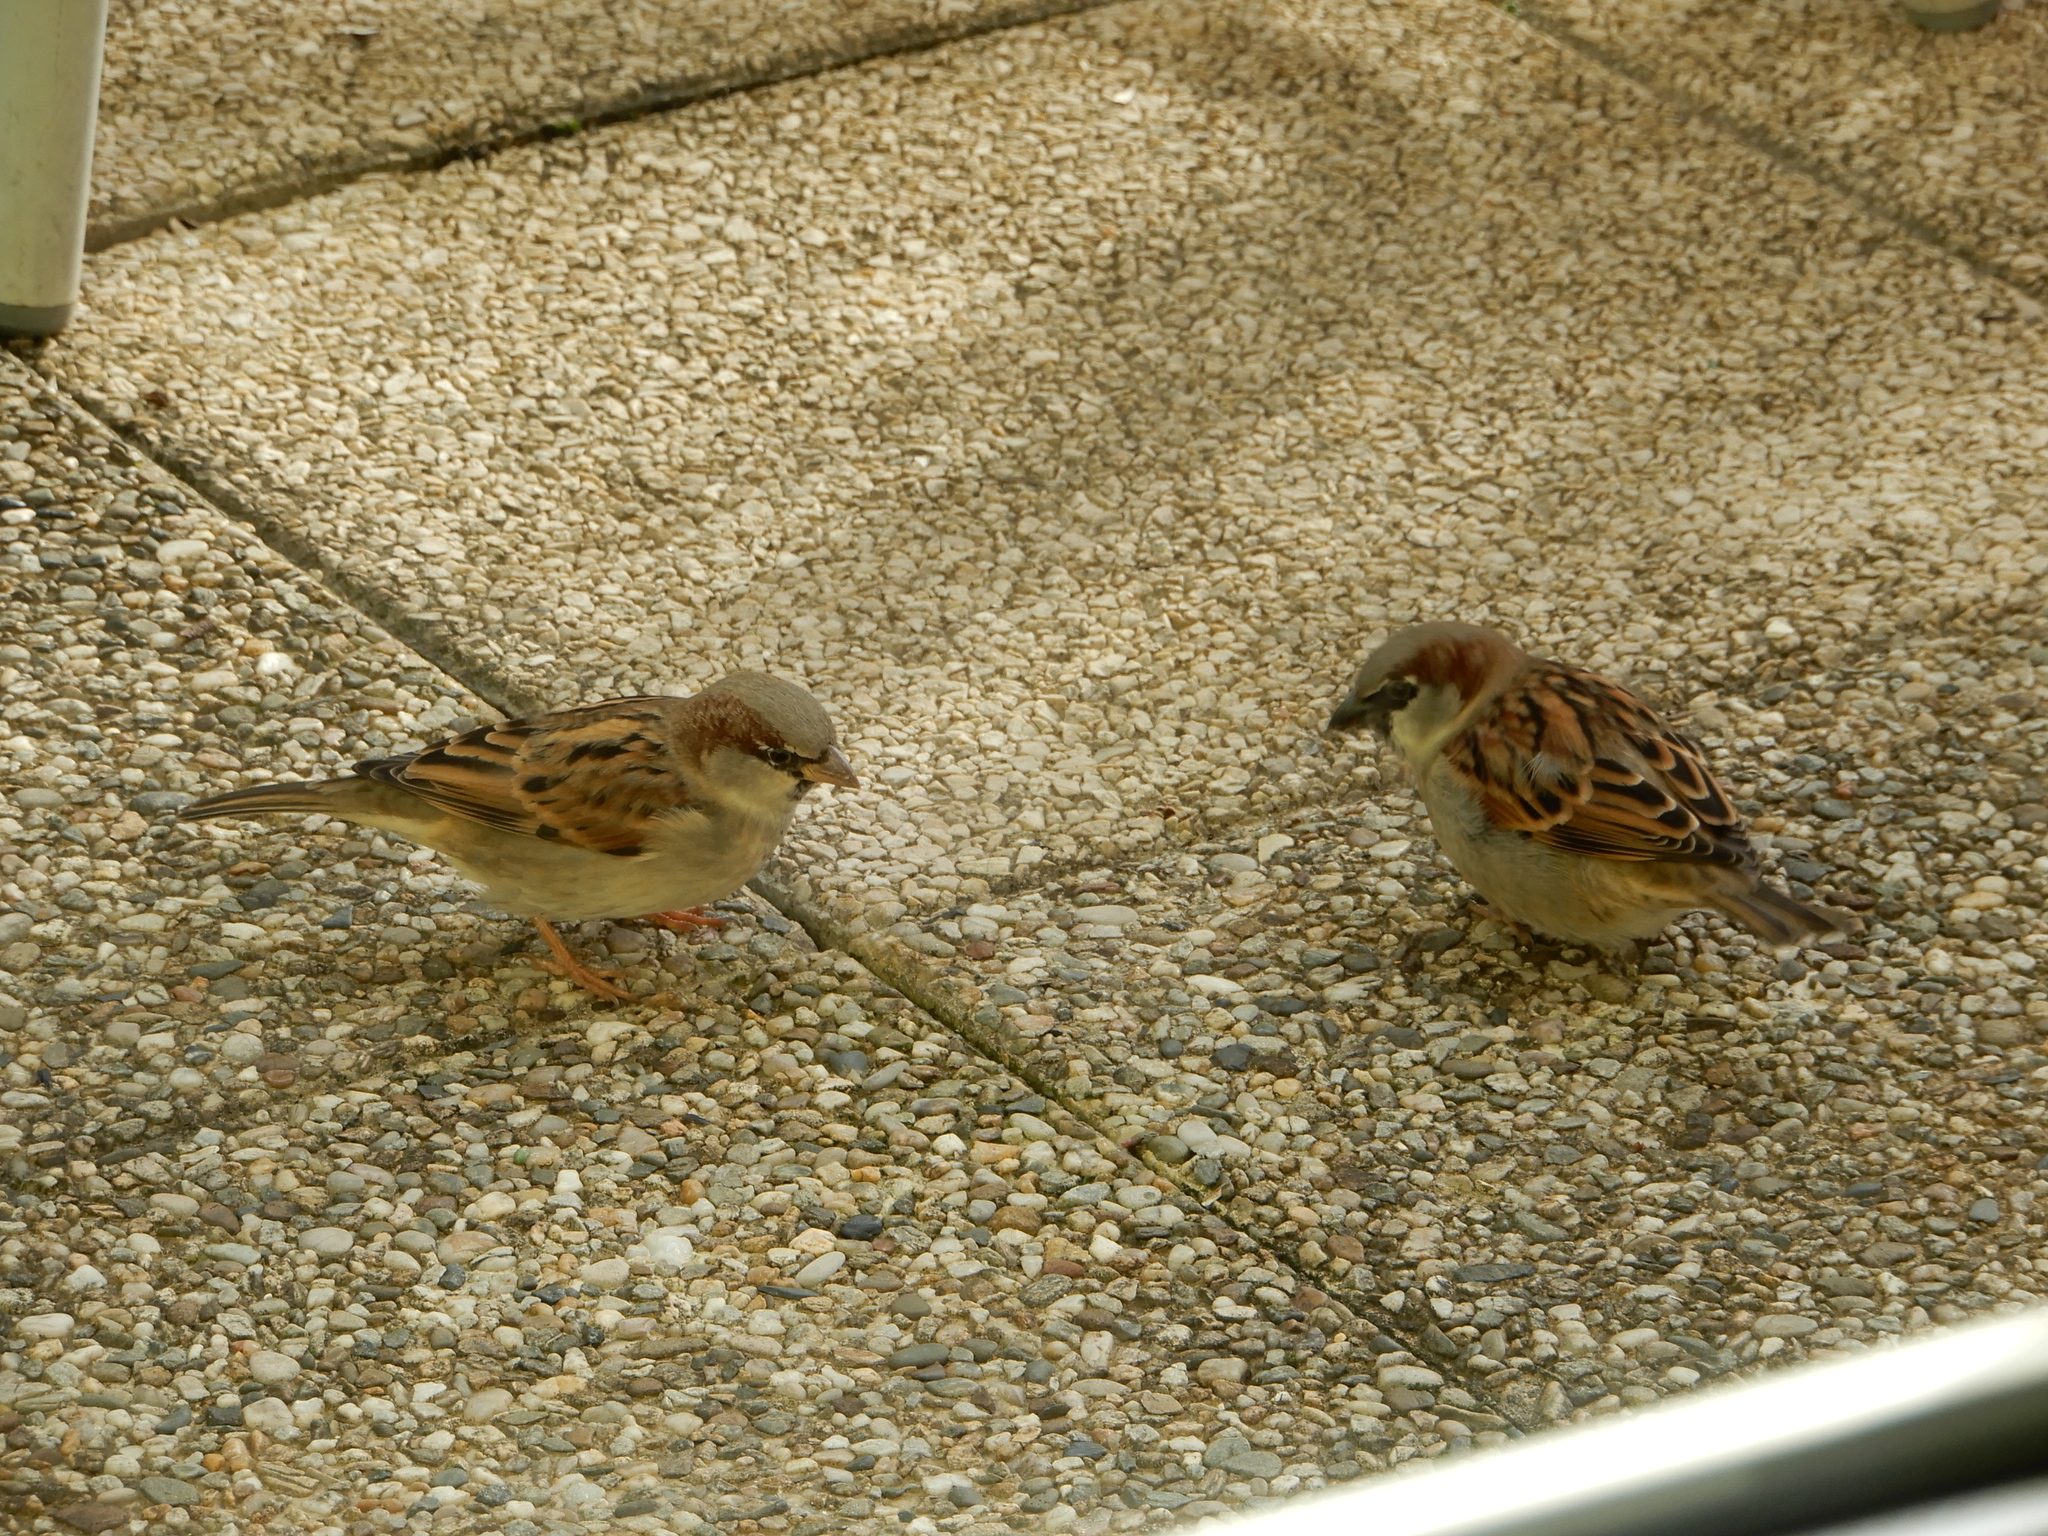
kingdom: Animalia
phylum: Chordata
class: Aves
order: Passeriformes
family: Passeridae
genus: Passer
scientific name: Passer domesticus
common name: House sparrow
